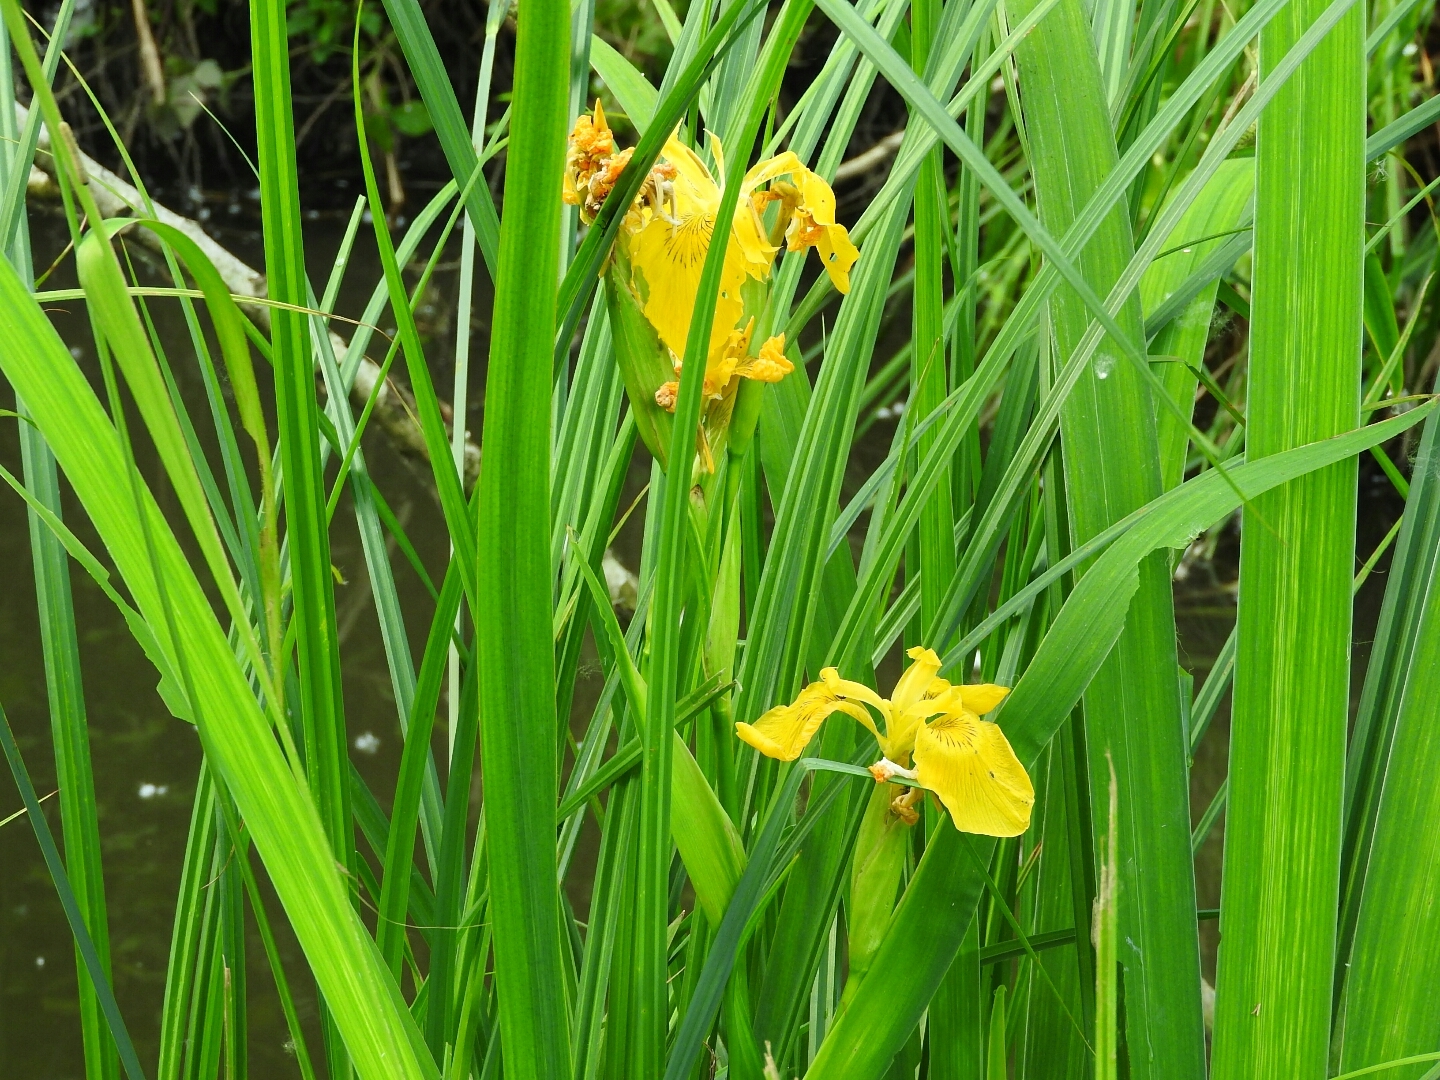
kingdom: Plantae
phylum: Tracheophyta
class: Liliopsida
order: Asparagales
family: Iridaceae
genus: Iris
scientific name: Iris pseudacorus
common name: Yellow flag
